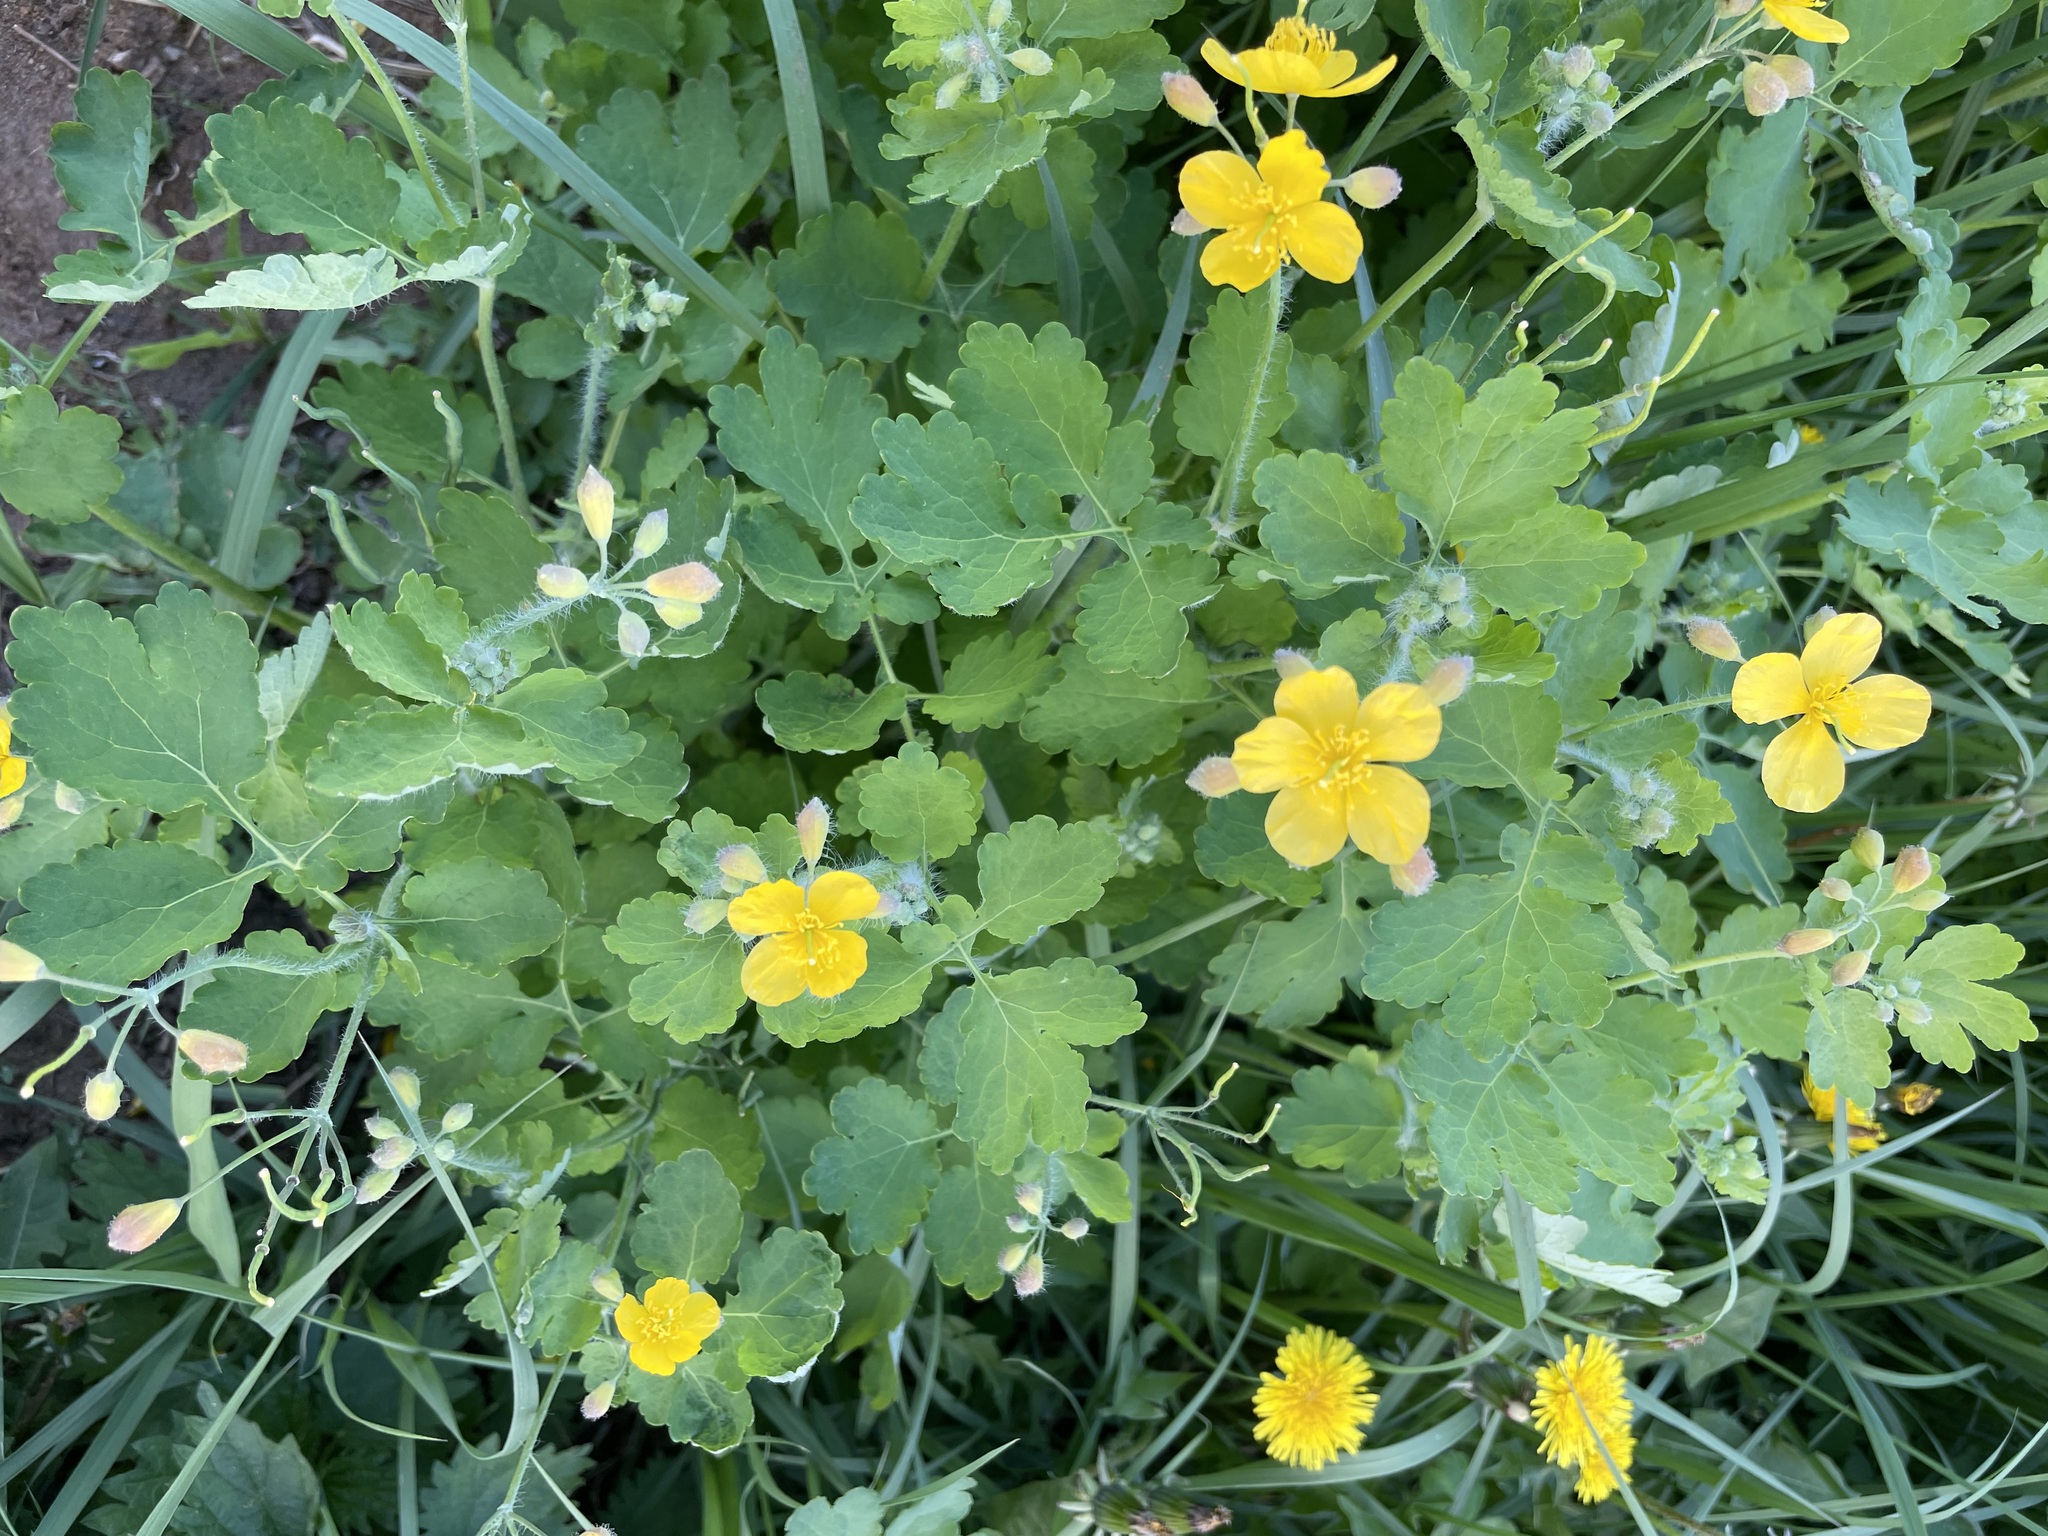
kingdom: Plantae
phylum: Tracheophyta
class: Magnoliopsida
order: Ranunculales
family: Papaveraceae
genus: Chelidonium
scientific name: Chelidonium majus
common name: Greater celandine
